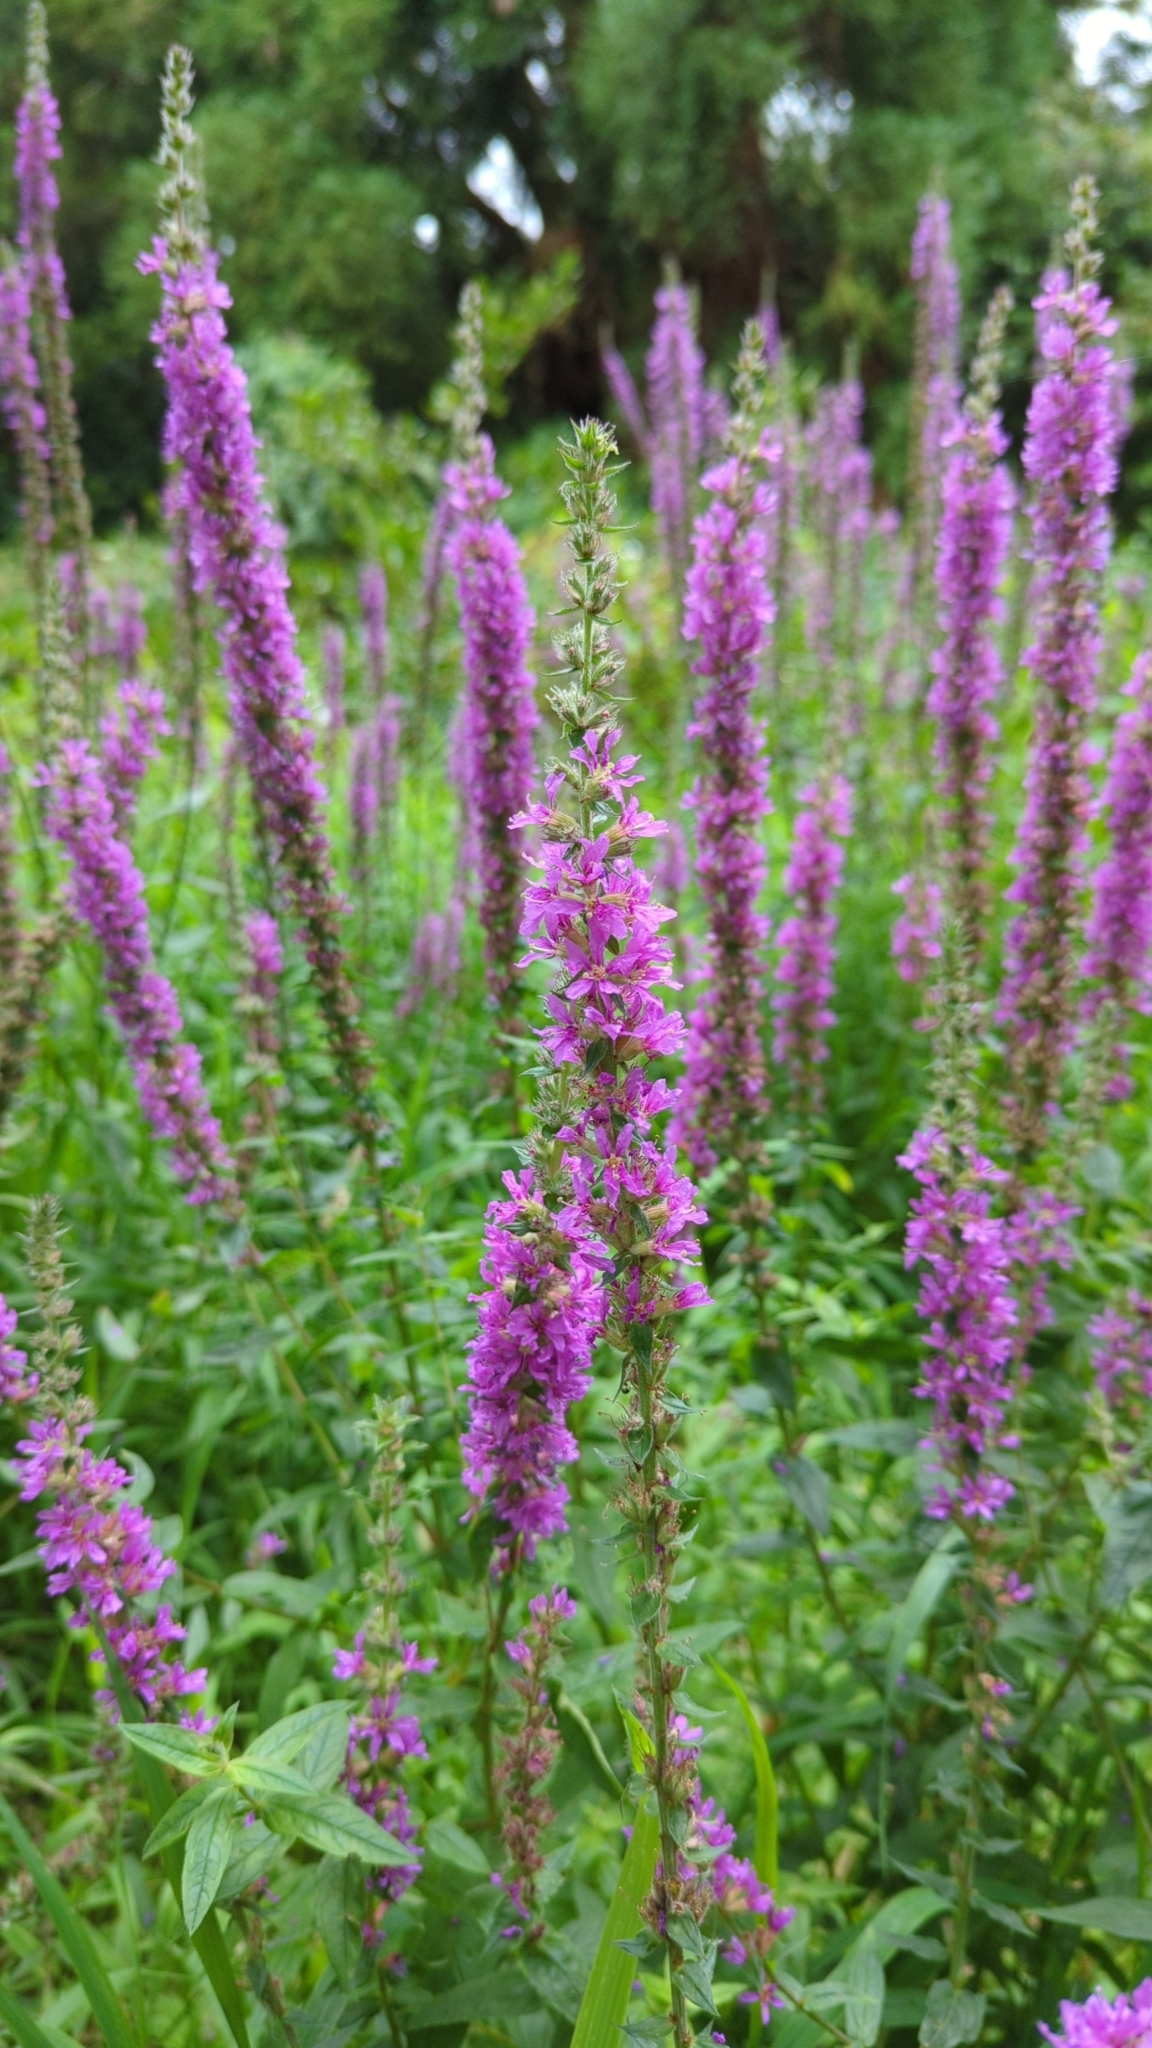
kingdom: Plantae
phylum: Tracheophyta
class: Magnoliopsida
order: Myrtales
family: Lythraceae
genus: Lythrum
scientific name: Lythrum salicaria
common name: Purple loosestrife
